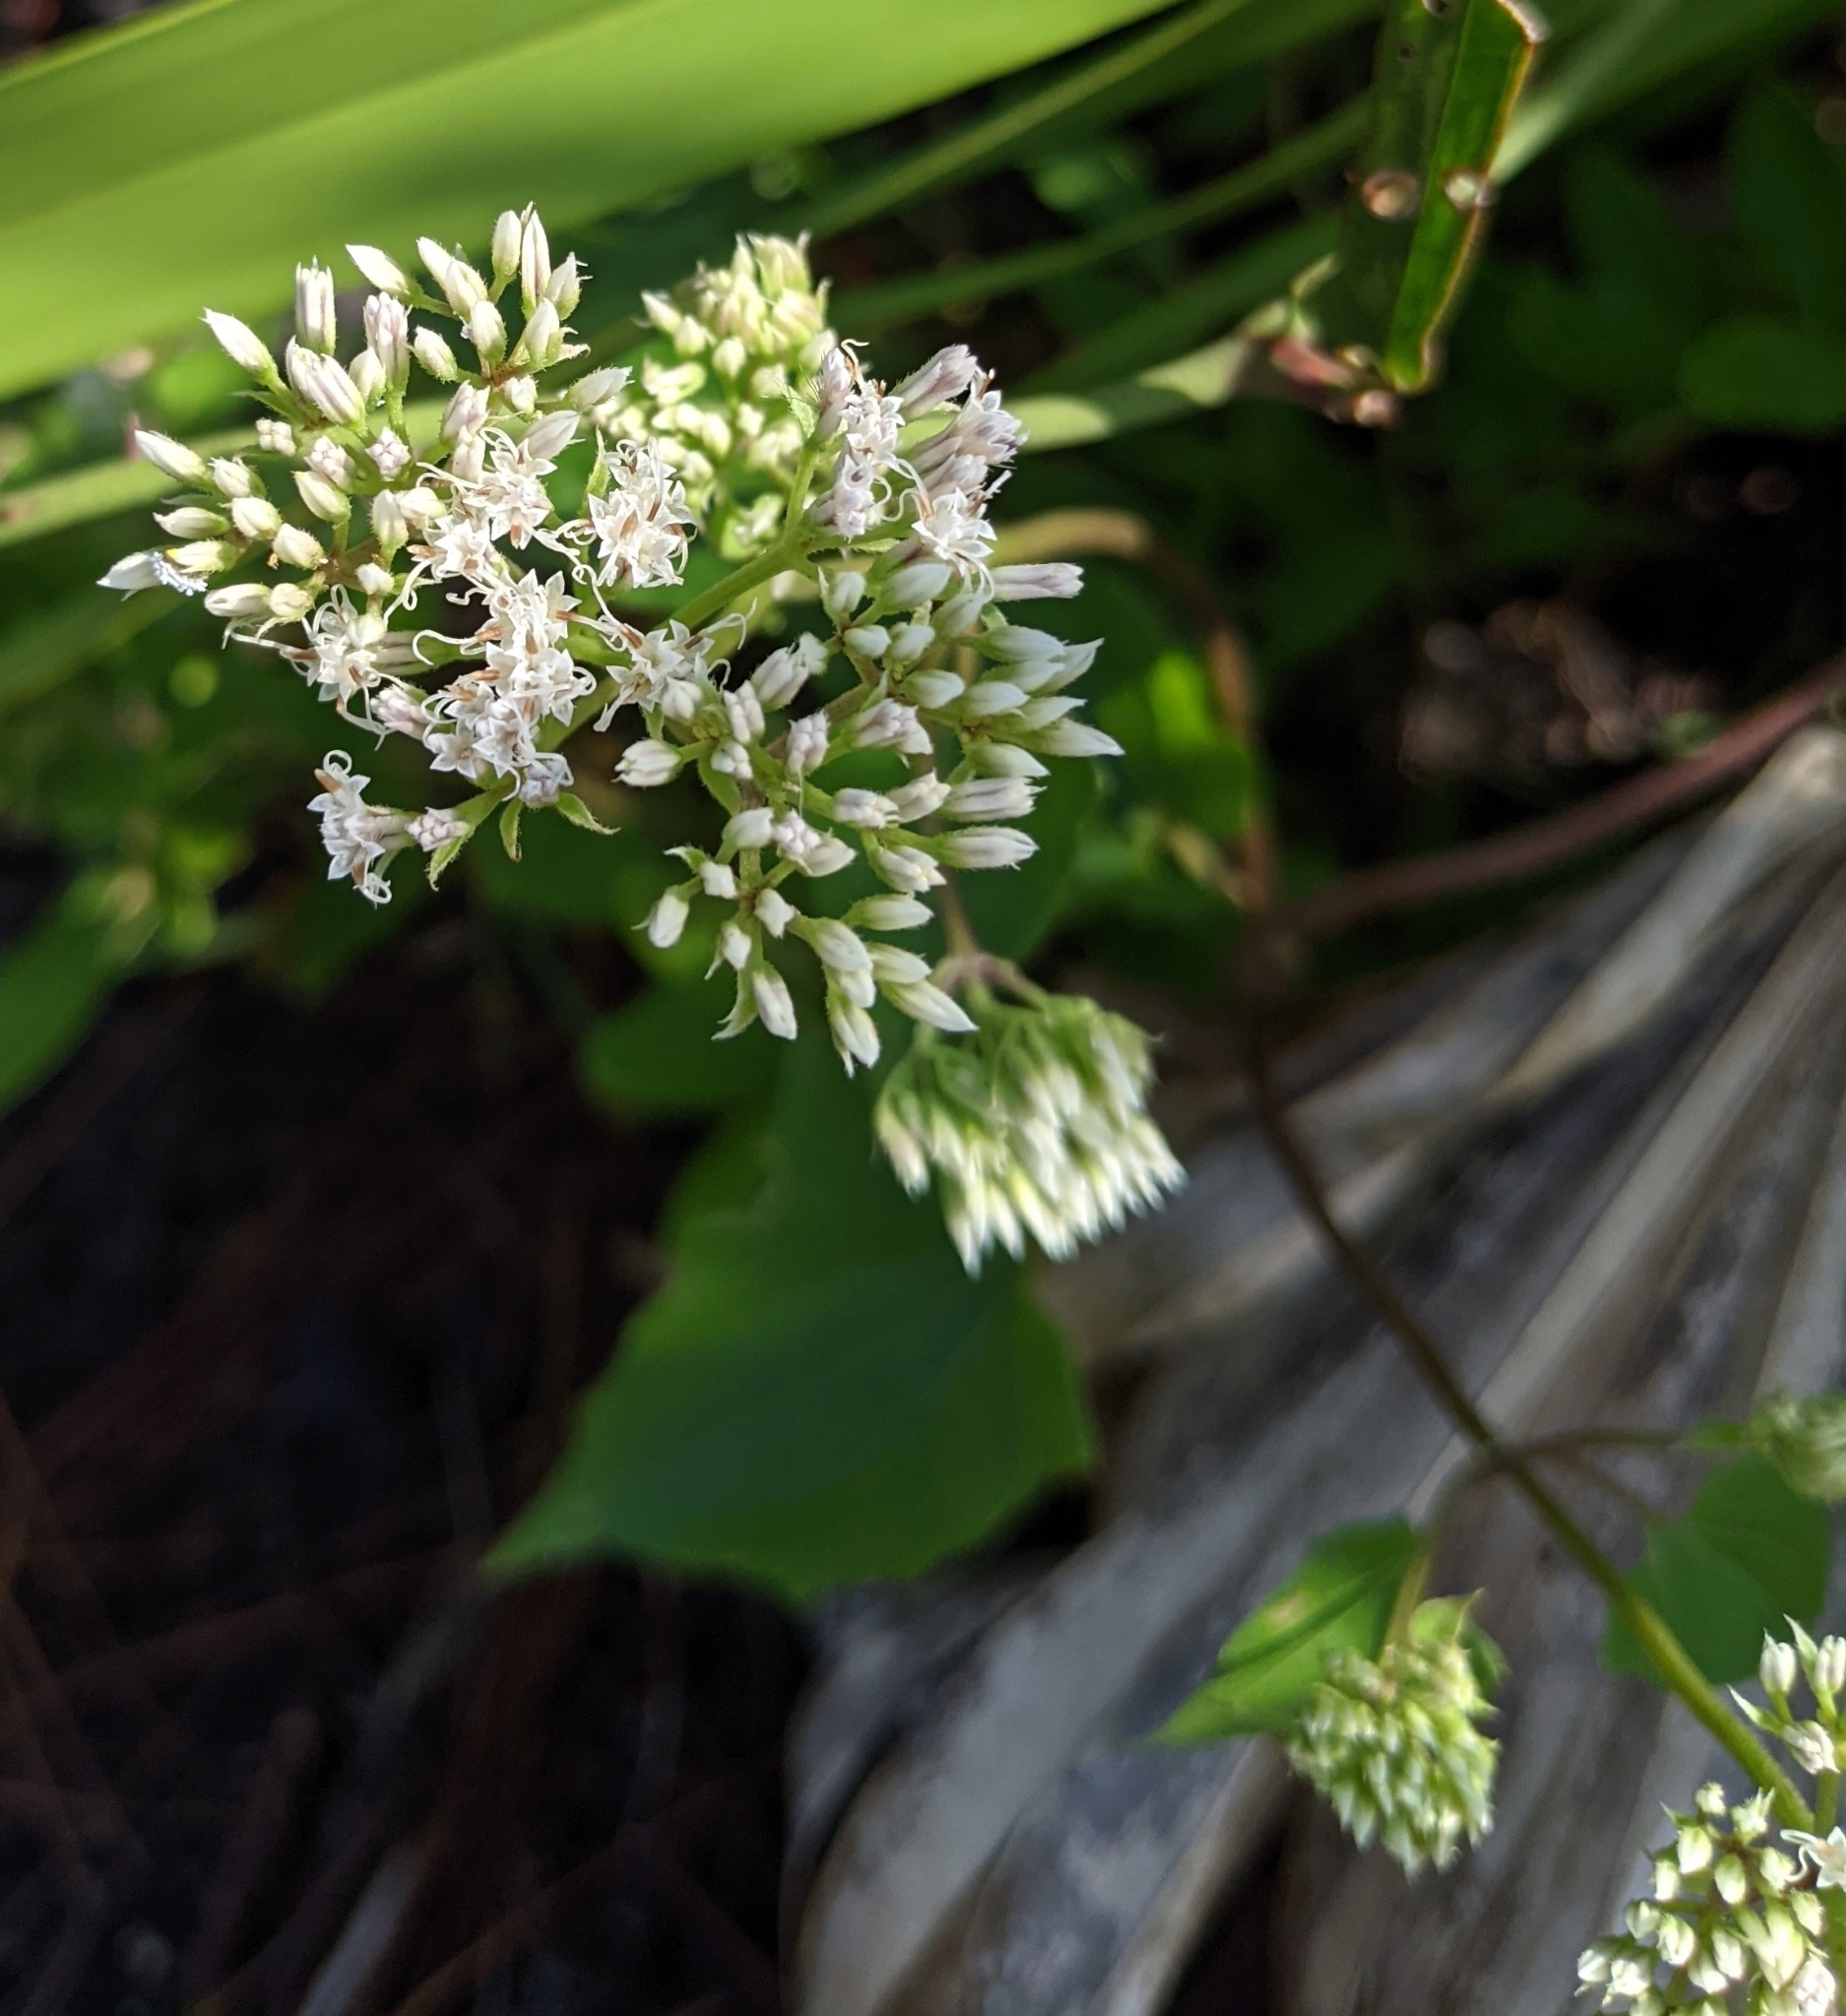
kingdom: Plantae
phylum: Tracheophyta
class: Magnoliopsida
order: Asterales
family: Asteraceae
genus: Mikania
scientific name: Mikania scandens
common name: Climbing hempvine
